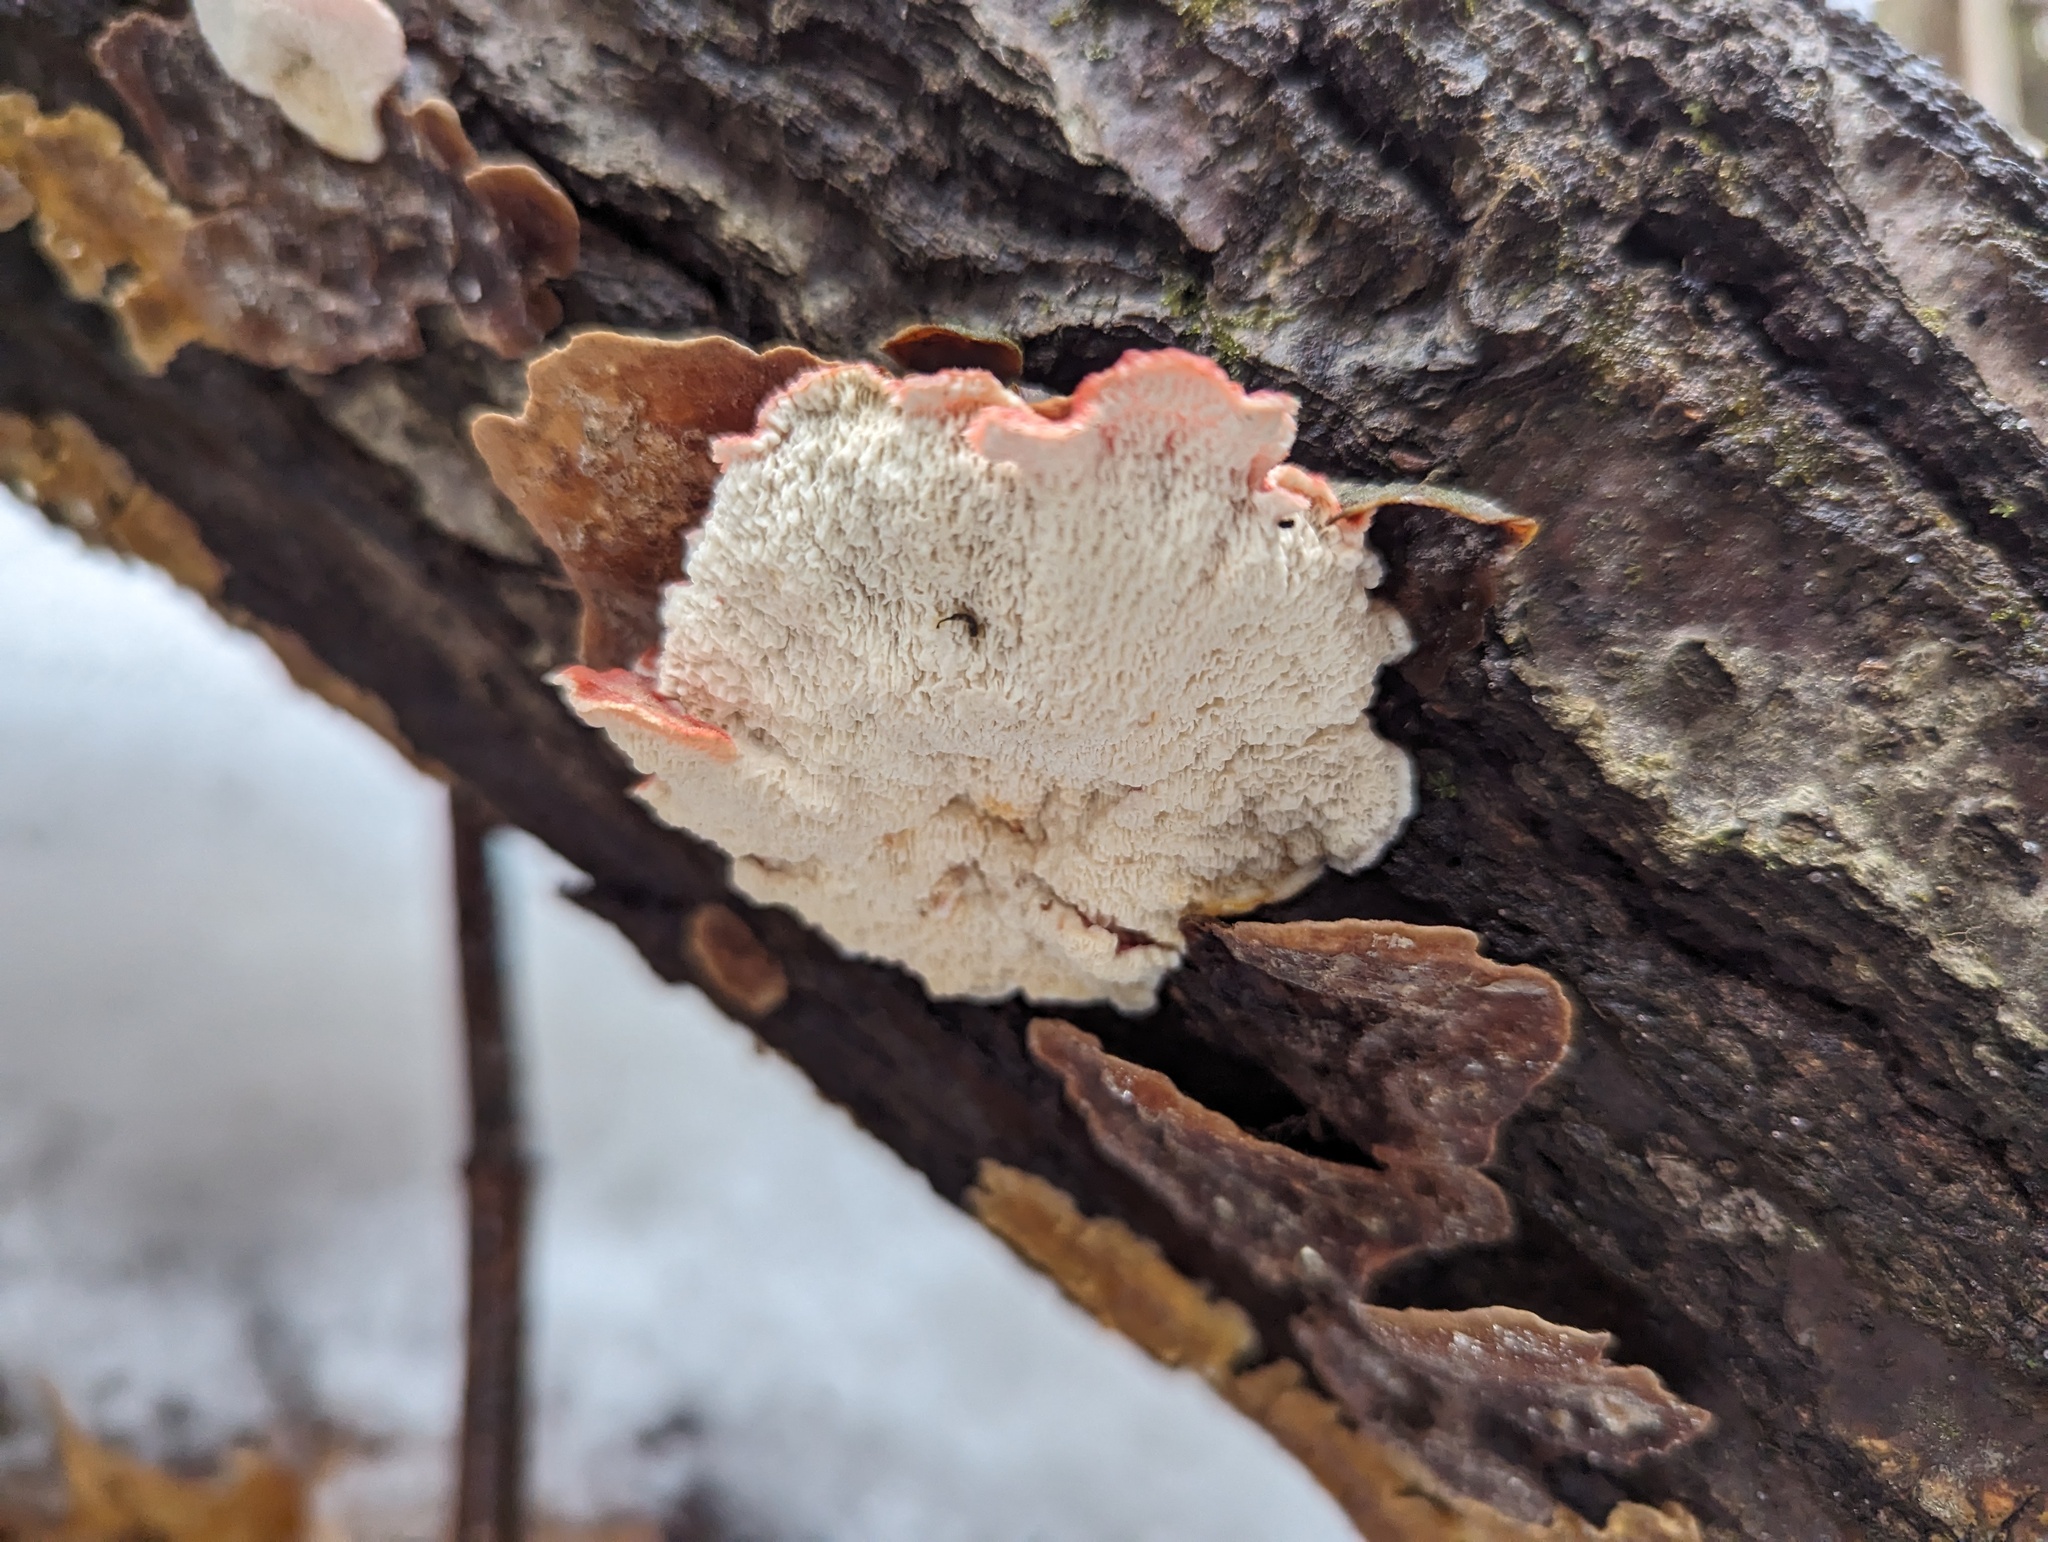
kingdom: Fungi
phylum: Basidiomycota
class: Agaricomycetes
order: Polyporales
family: Irpicaceae
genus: Byssomerulius
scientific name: Byssomerulius incarnatus
